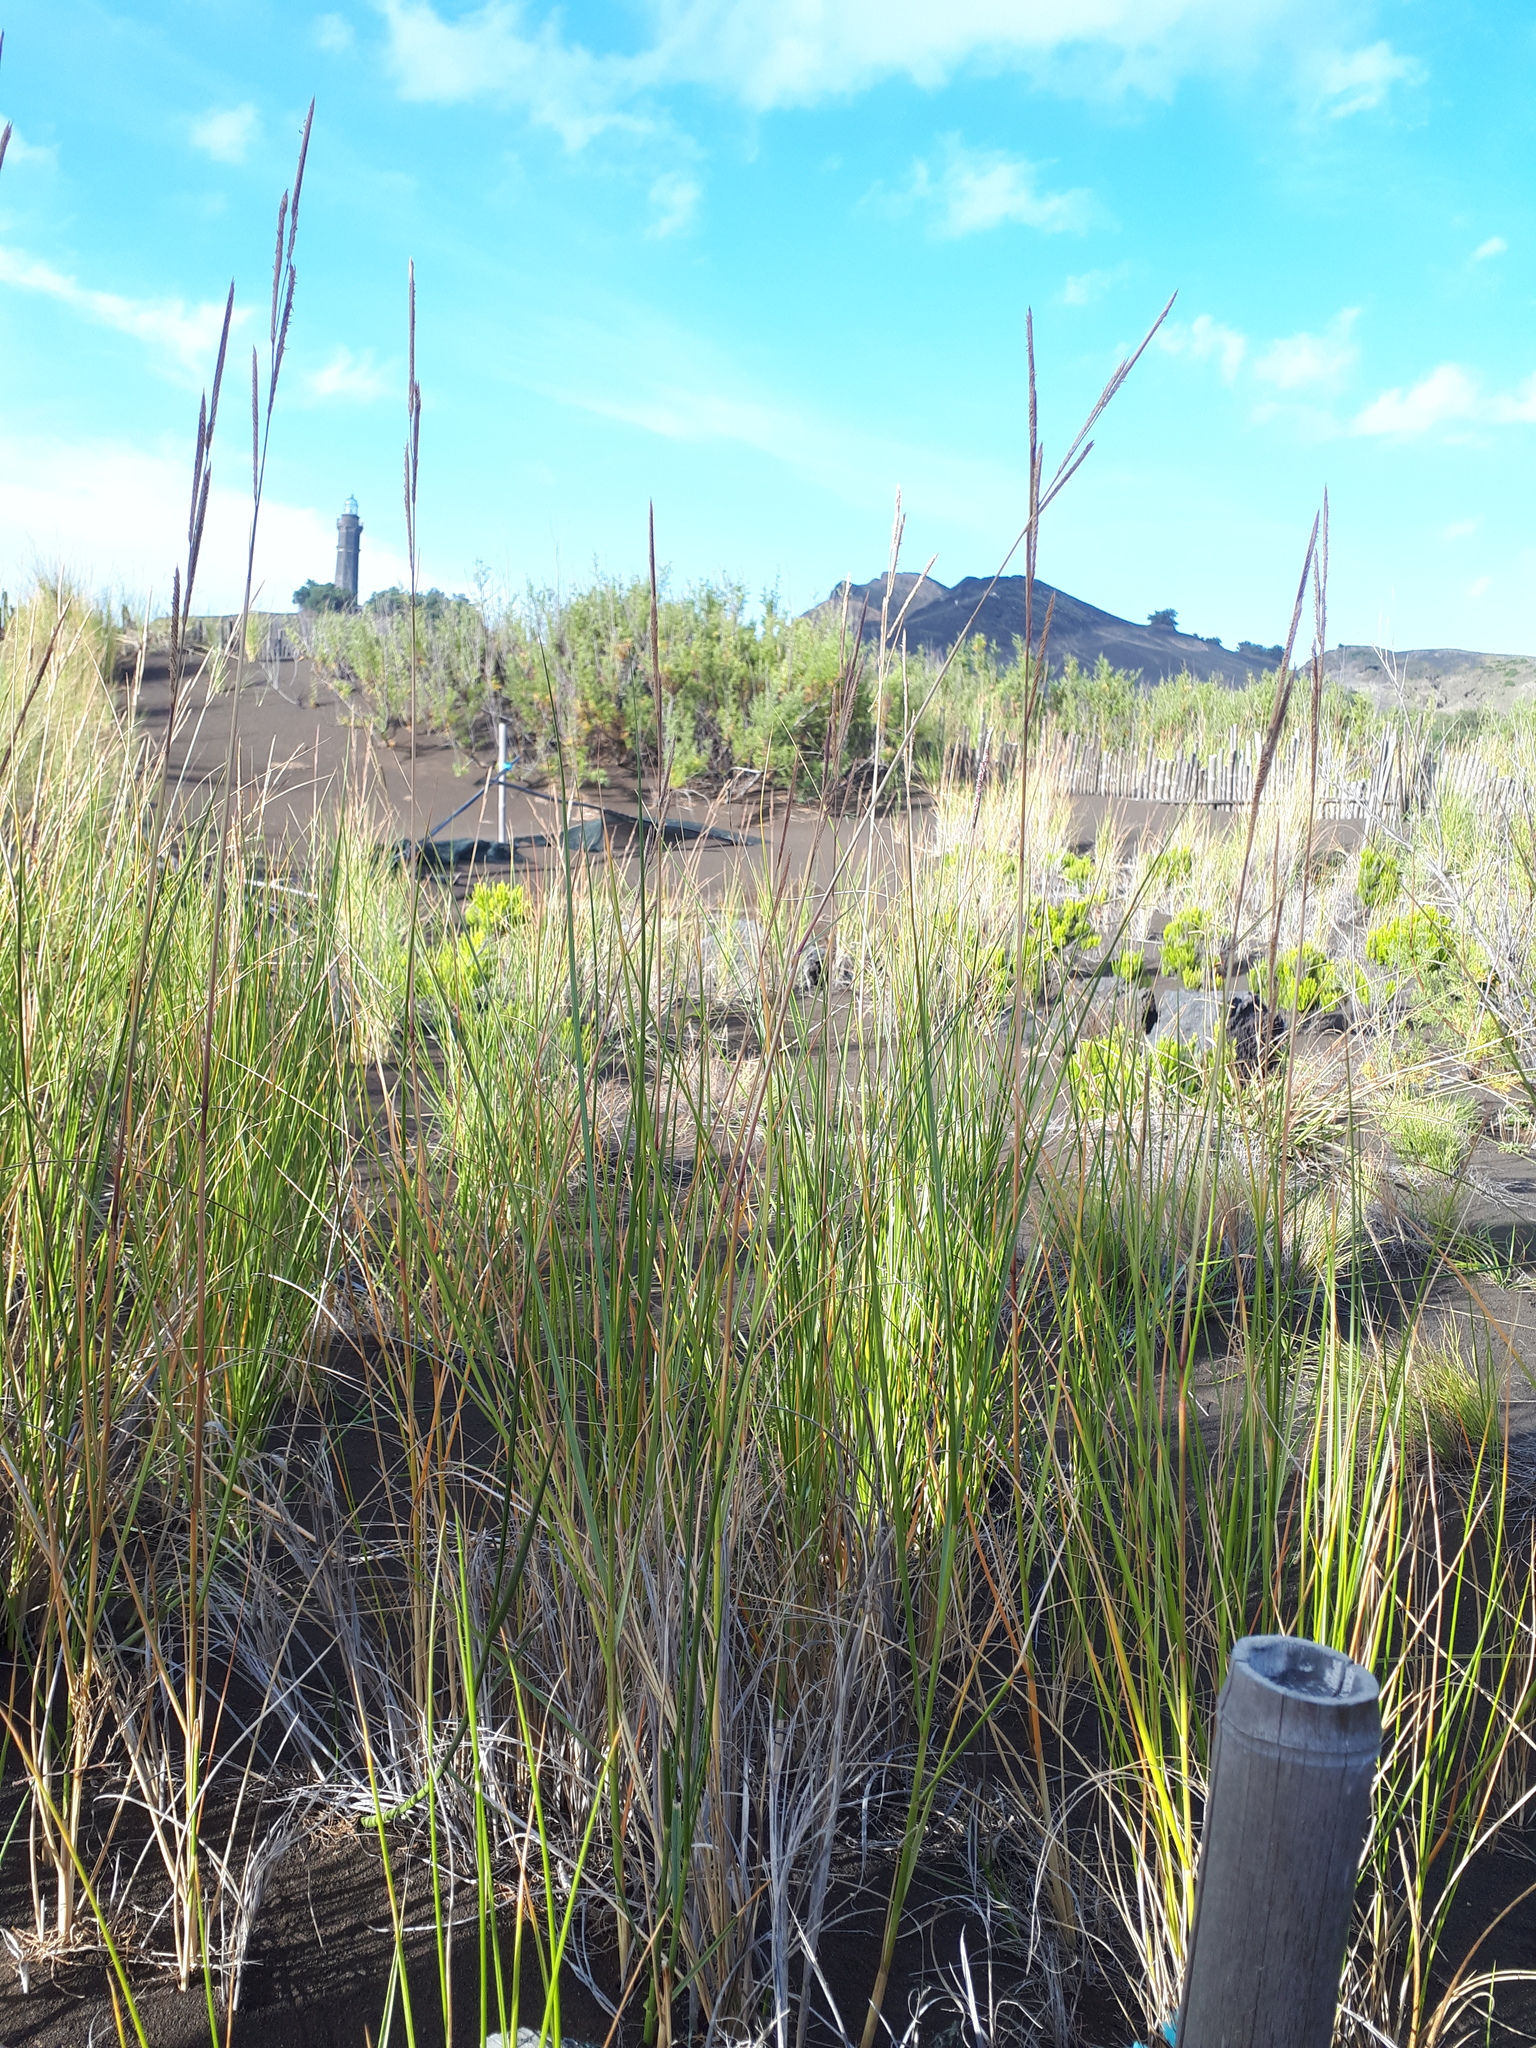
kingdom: Plantae
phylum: Tracheophyta
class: Liliopsida
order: Poales
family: Poaceae
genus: Sporobolus
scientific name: Sporobolus pumilus
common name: Highwater grass
